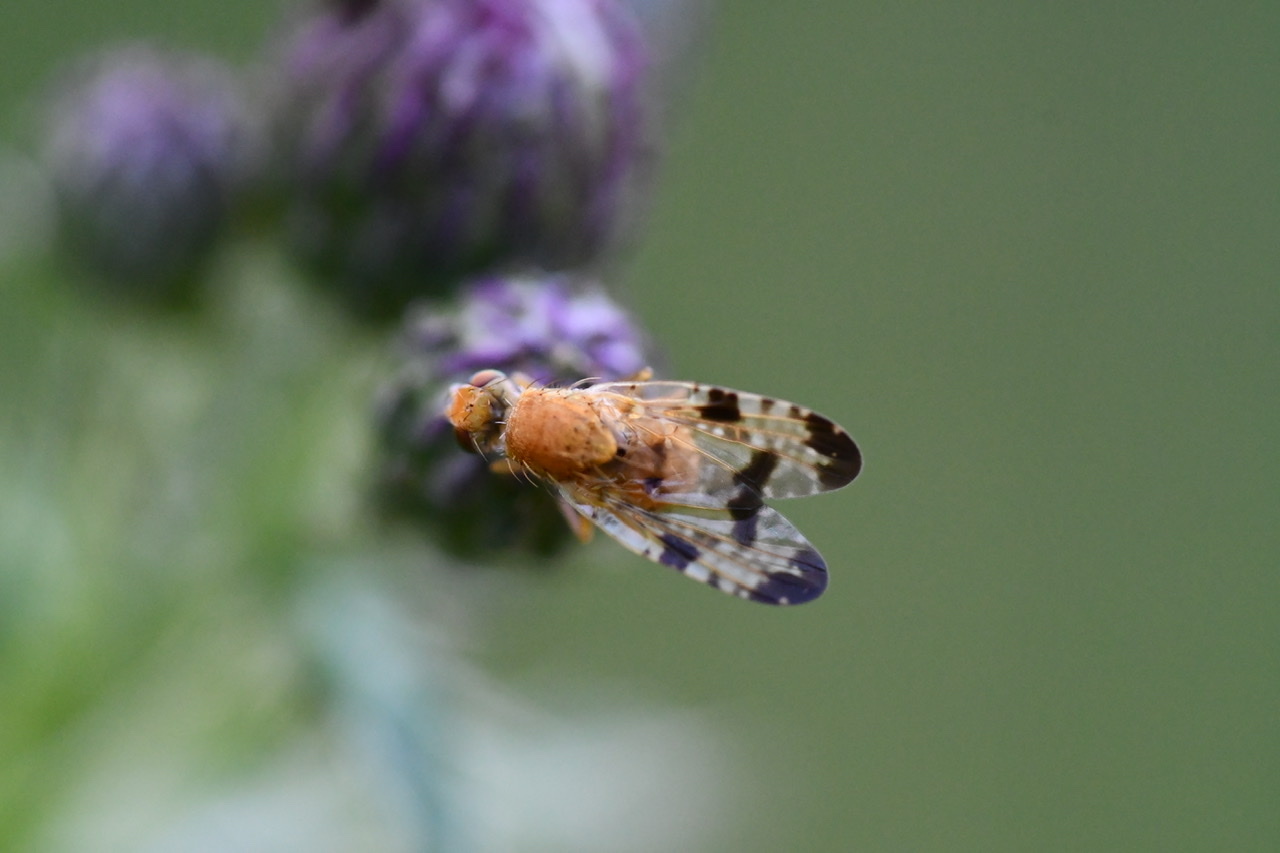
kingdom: Animalia
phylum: Arthropoda
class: Insecta
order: Diptera
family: Tephritidae
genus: Xyphosia
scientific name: Xyphosia miliaria
